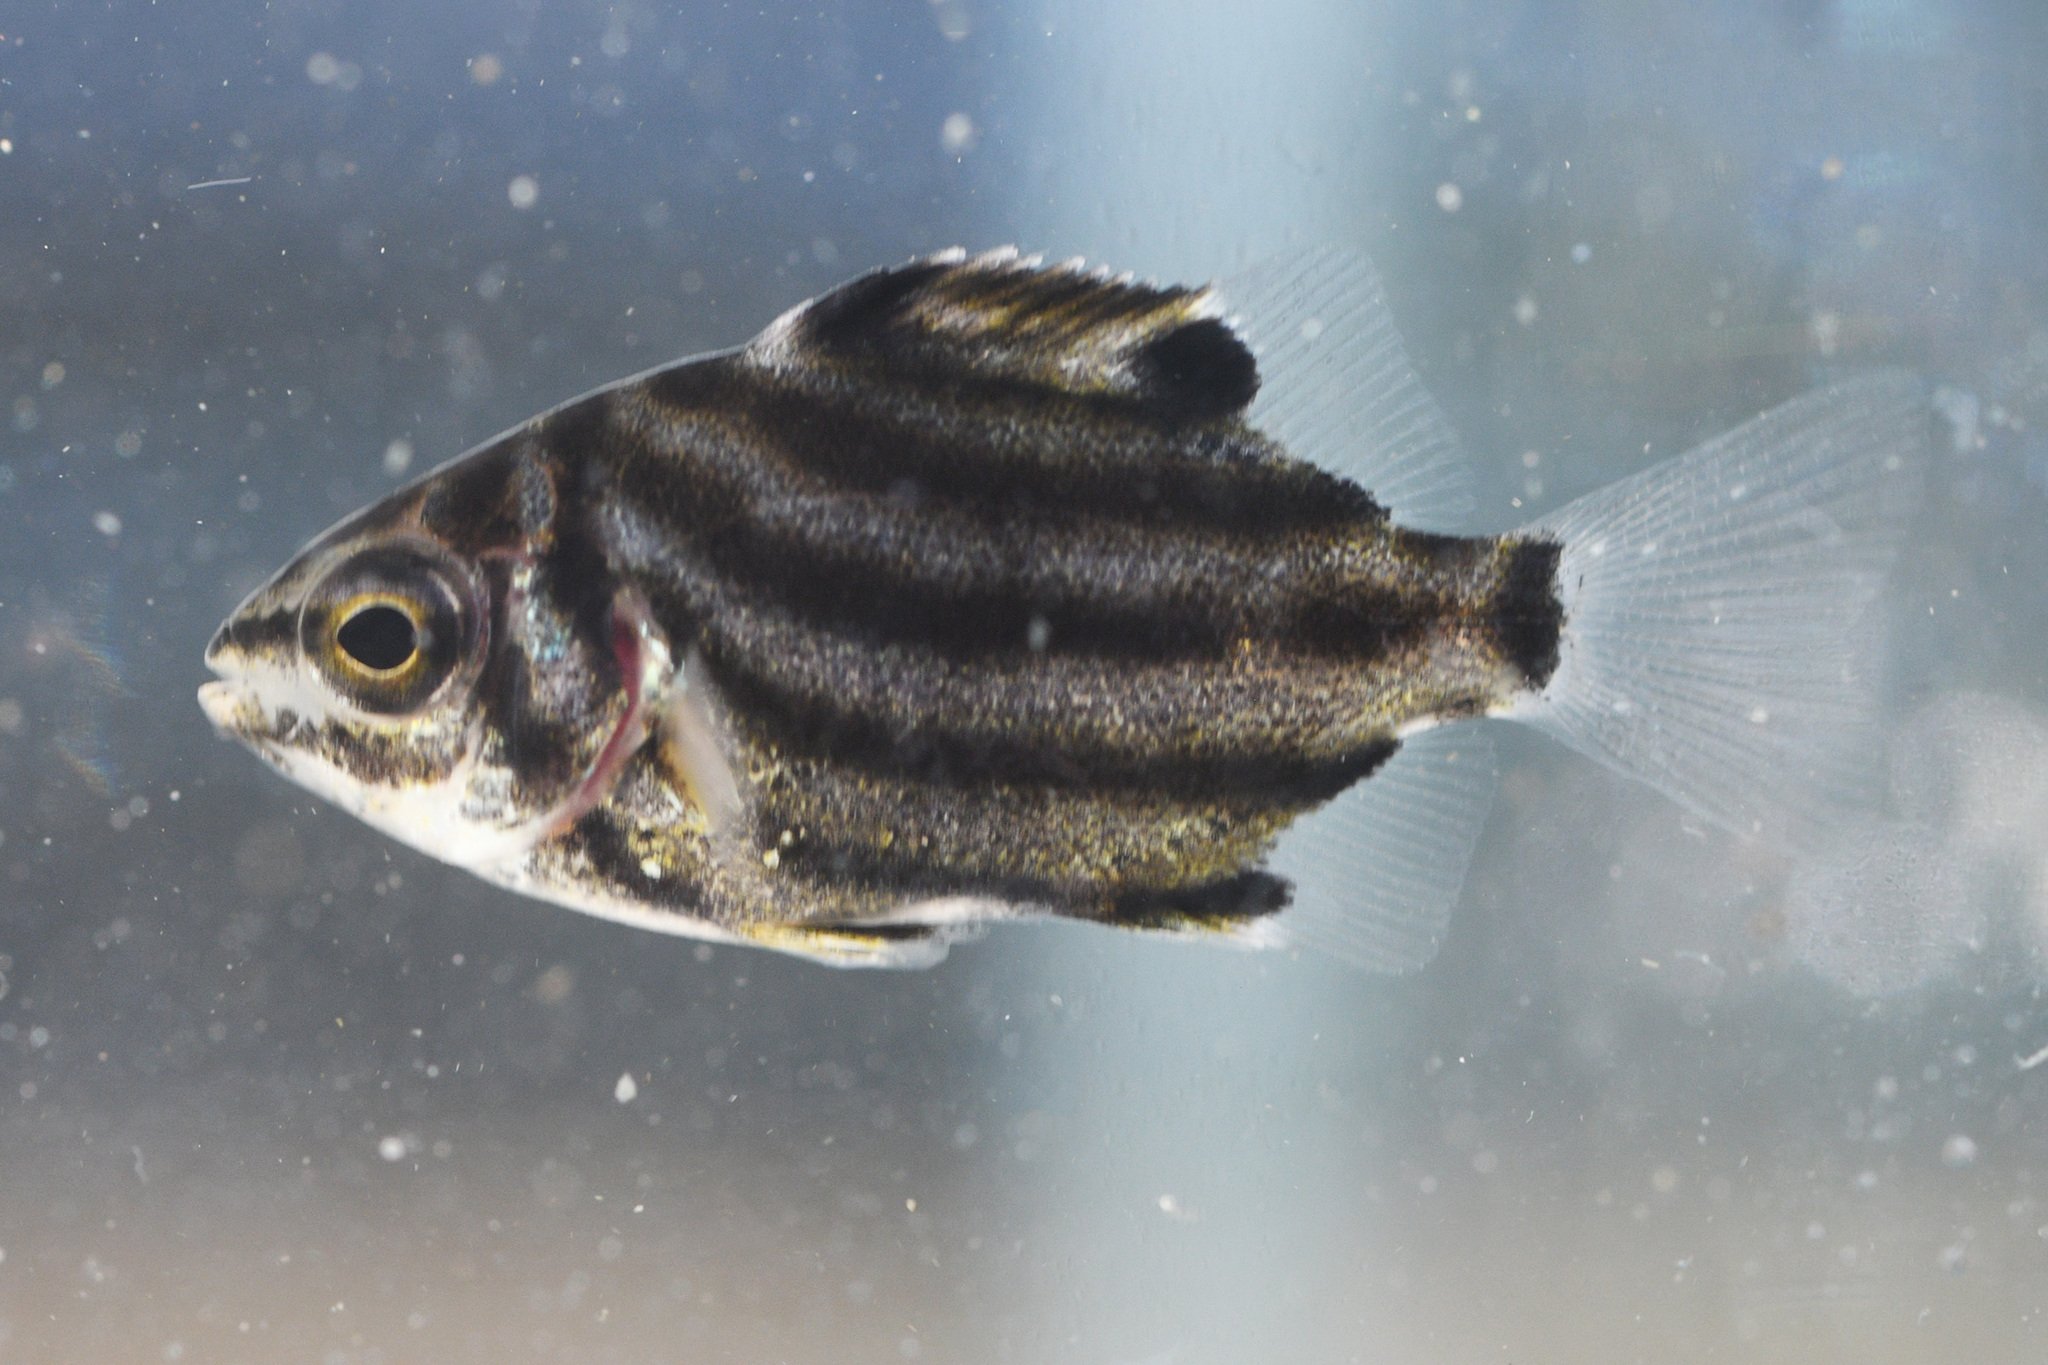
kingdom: Animalia
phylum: Chordata
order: Perciformes
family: Kyphosidae
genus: Microcanthus
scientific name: Microcanthus joyceae
